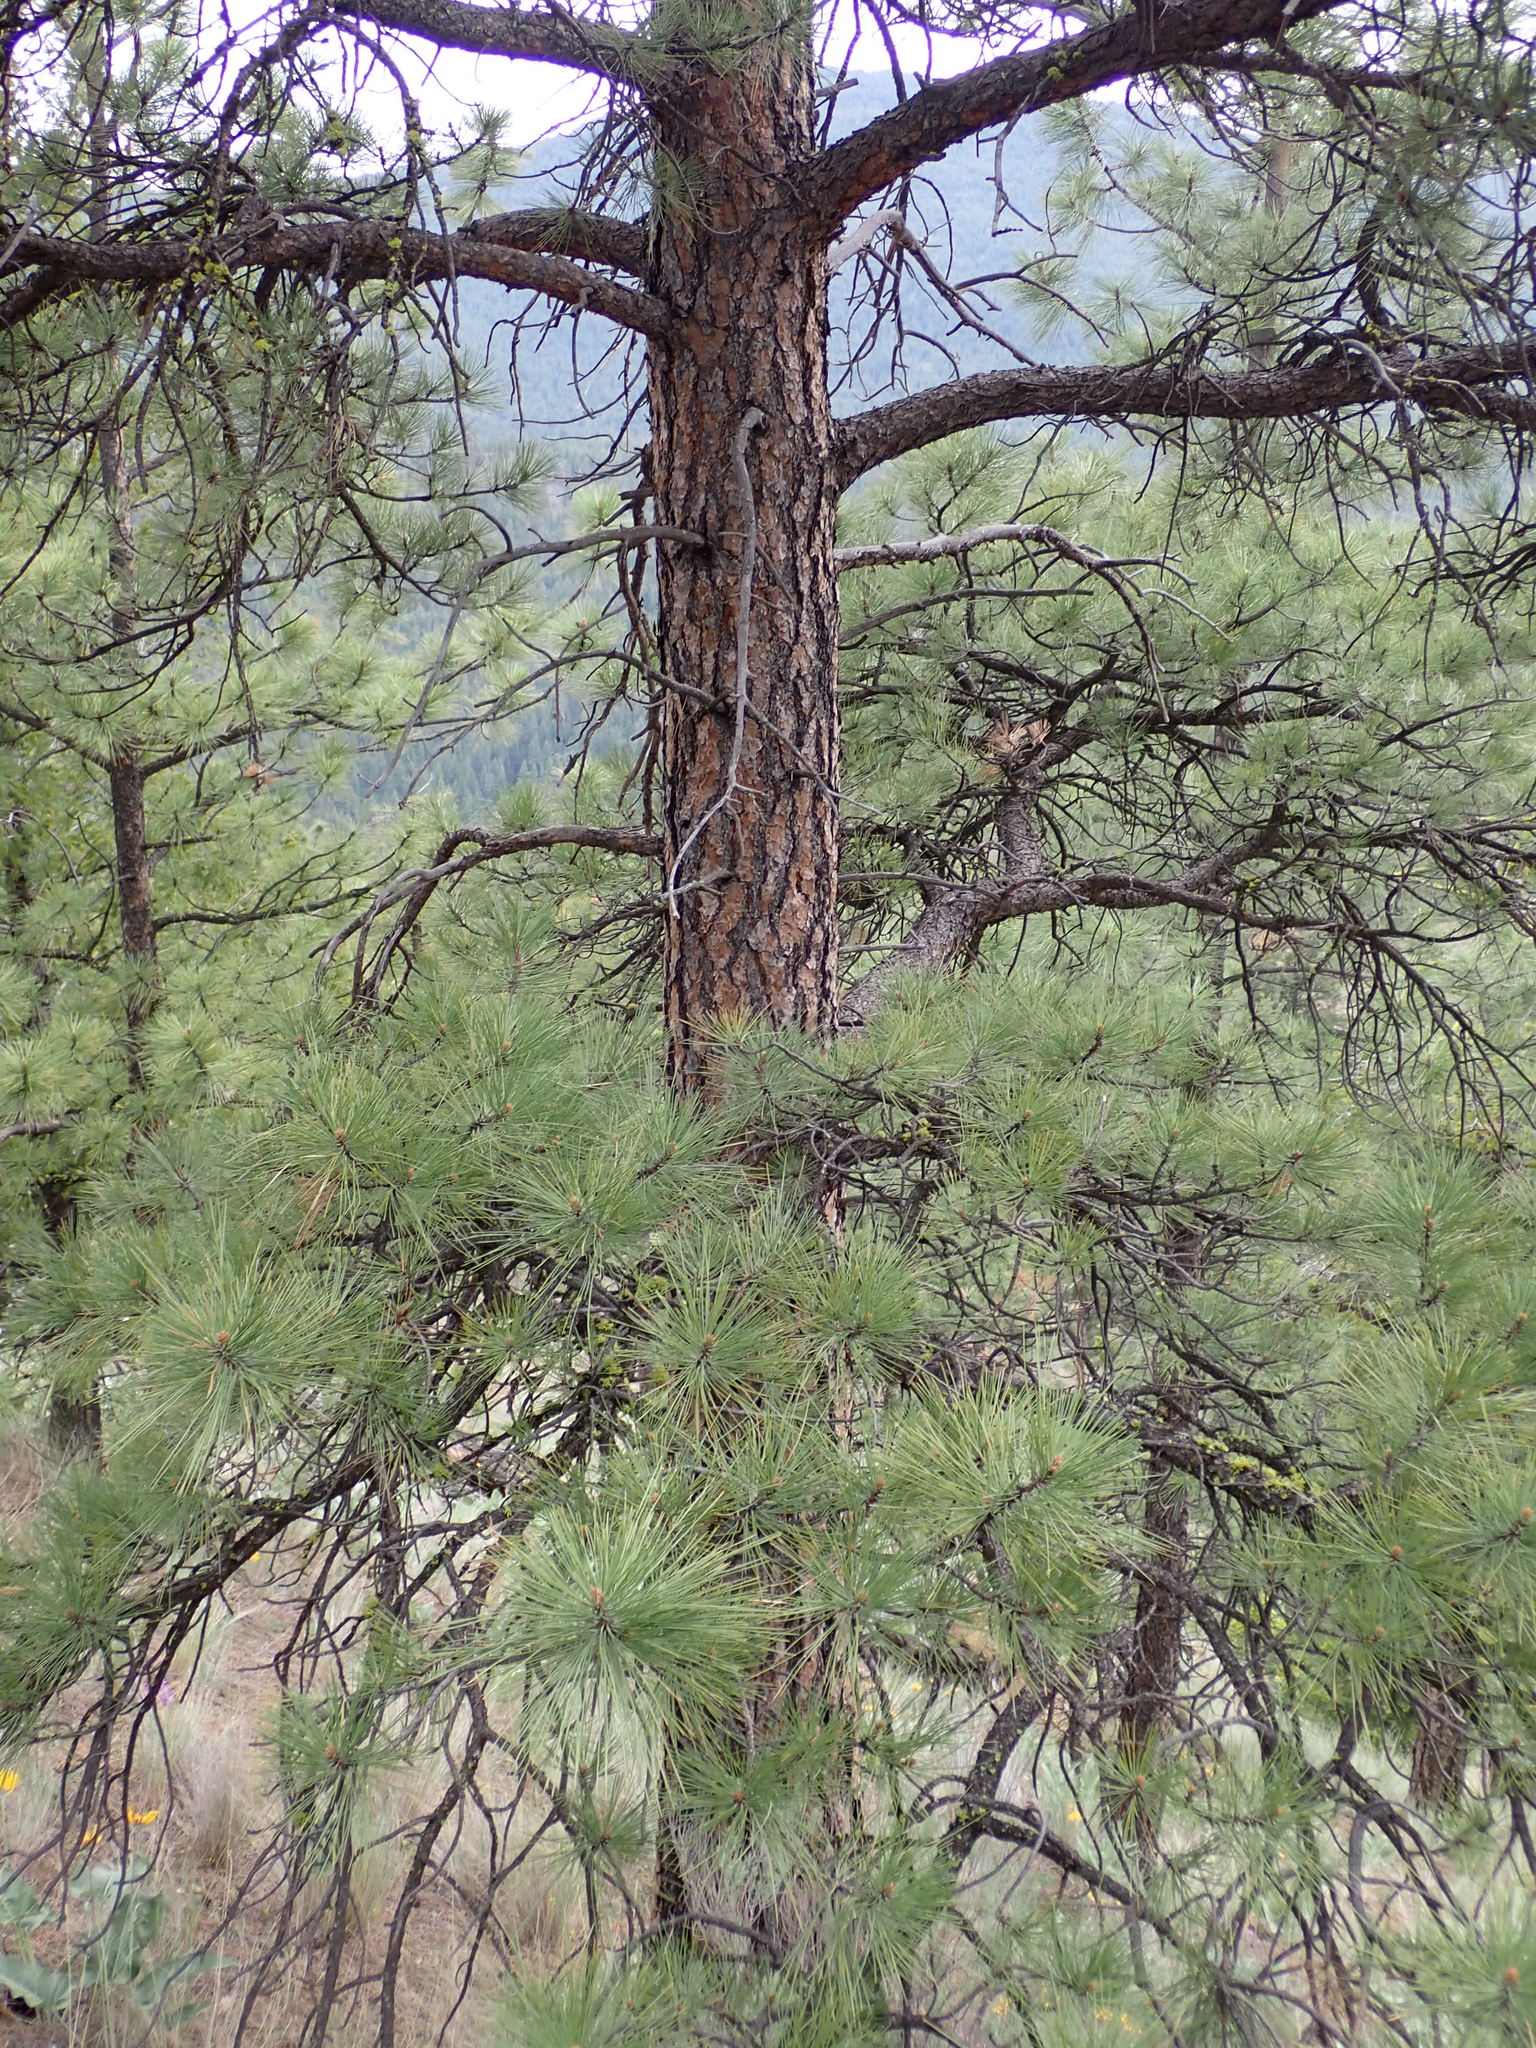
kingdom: Plantae
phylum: Tracheophyta
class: Pinopsida
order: Pinales
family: Pinaceae
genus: Pinus
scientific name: Pinus ponderosa
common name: Western yellow-pine
